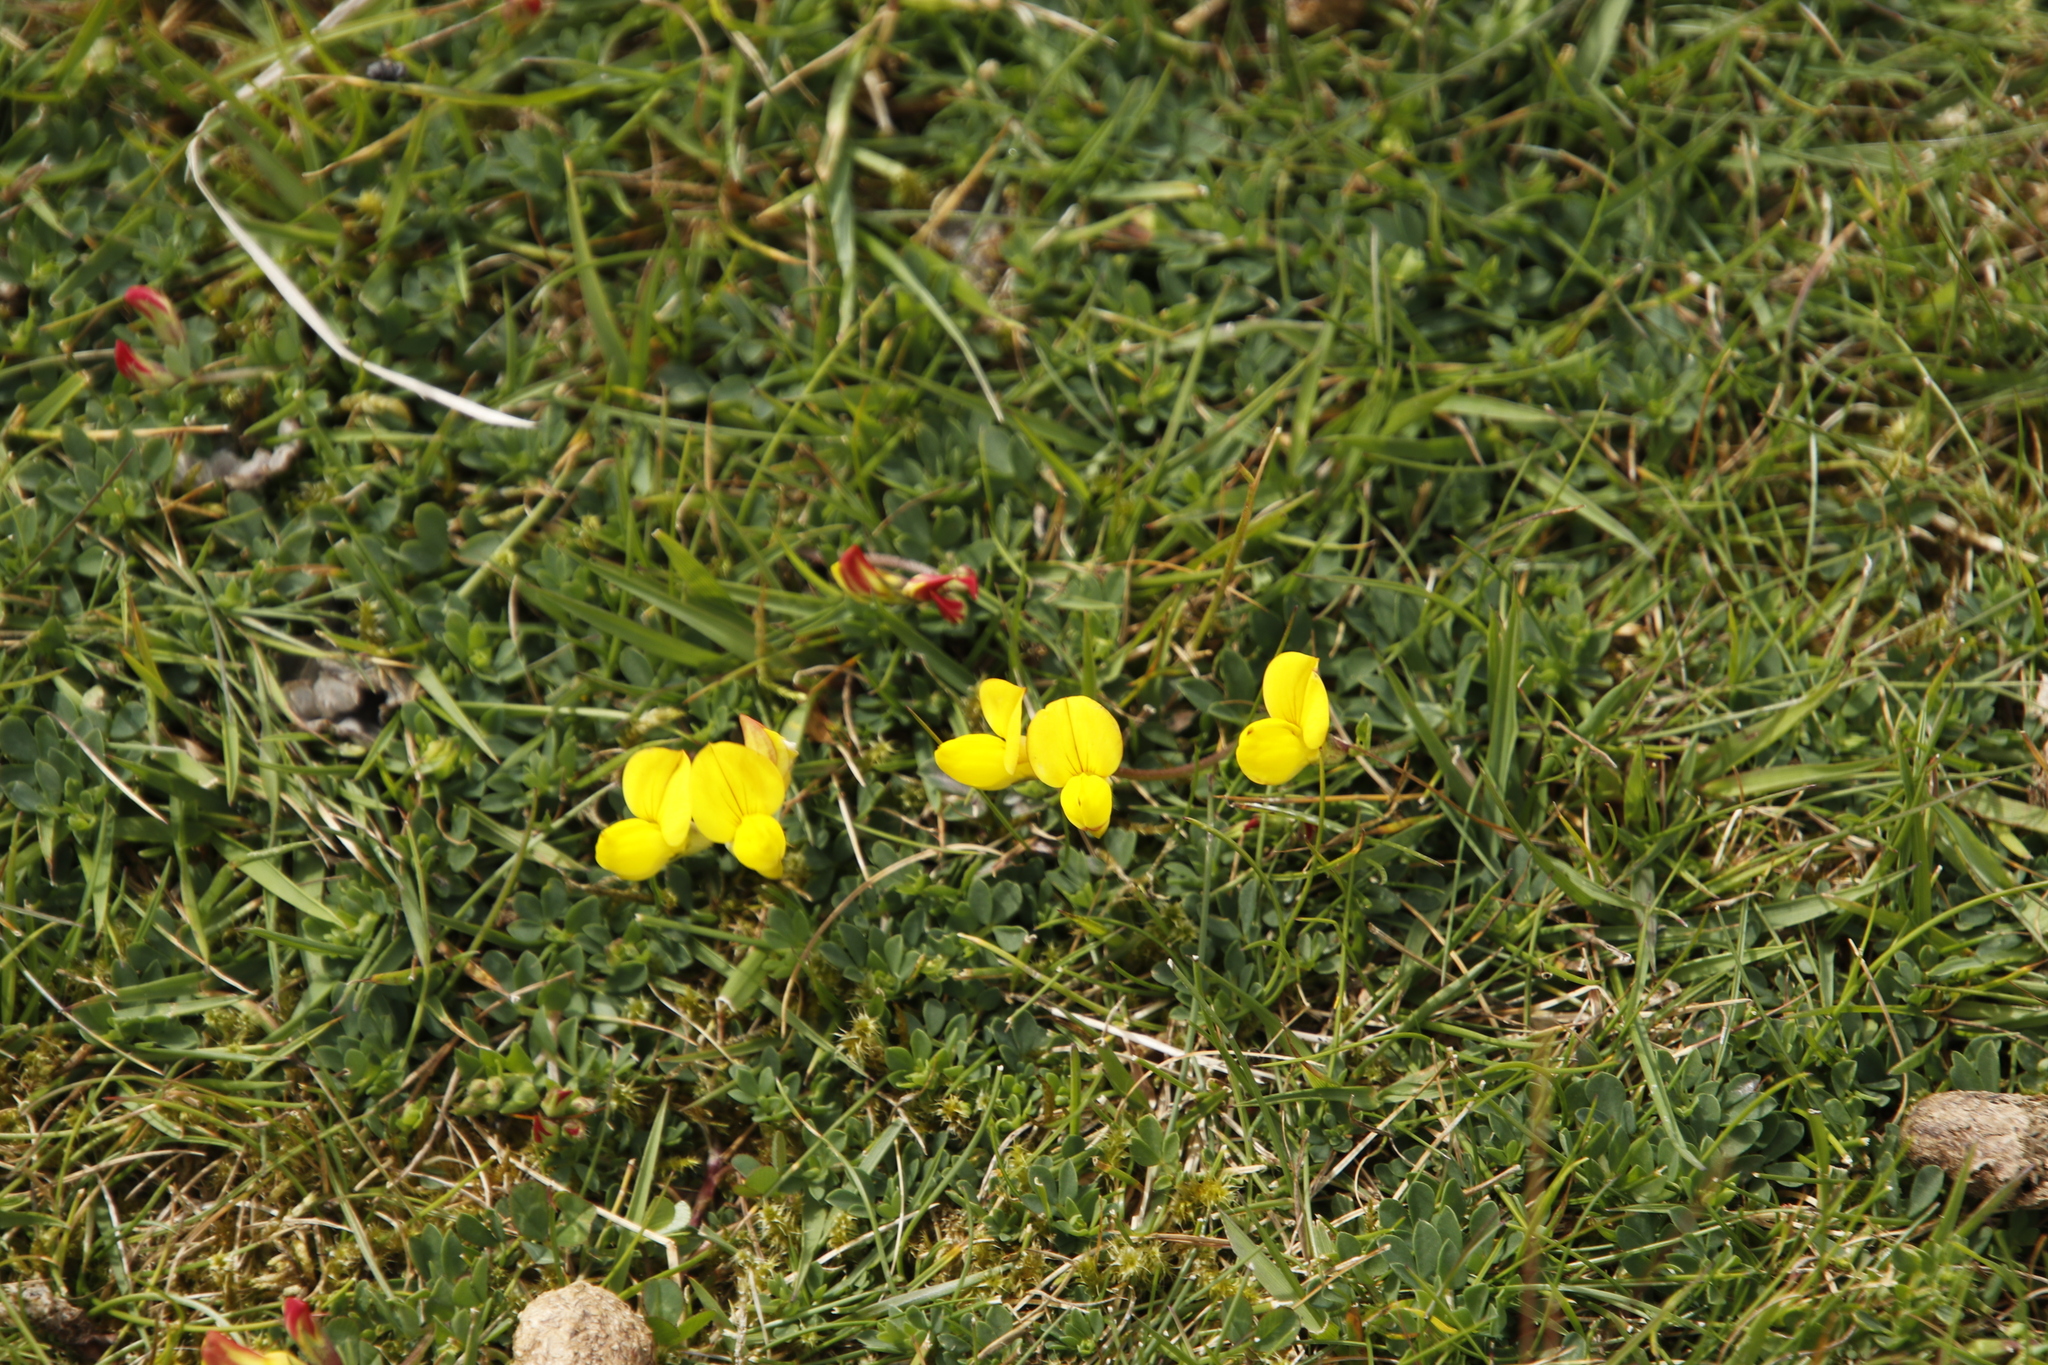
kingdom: Plantae
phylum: Tracheophyta
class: Magnoliopsida
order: Fabales
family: Fabaceae
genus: Lotus
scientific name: Lotus corniculatus
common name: Common bird's-foot-trefoil
